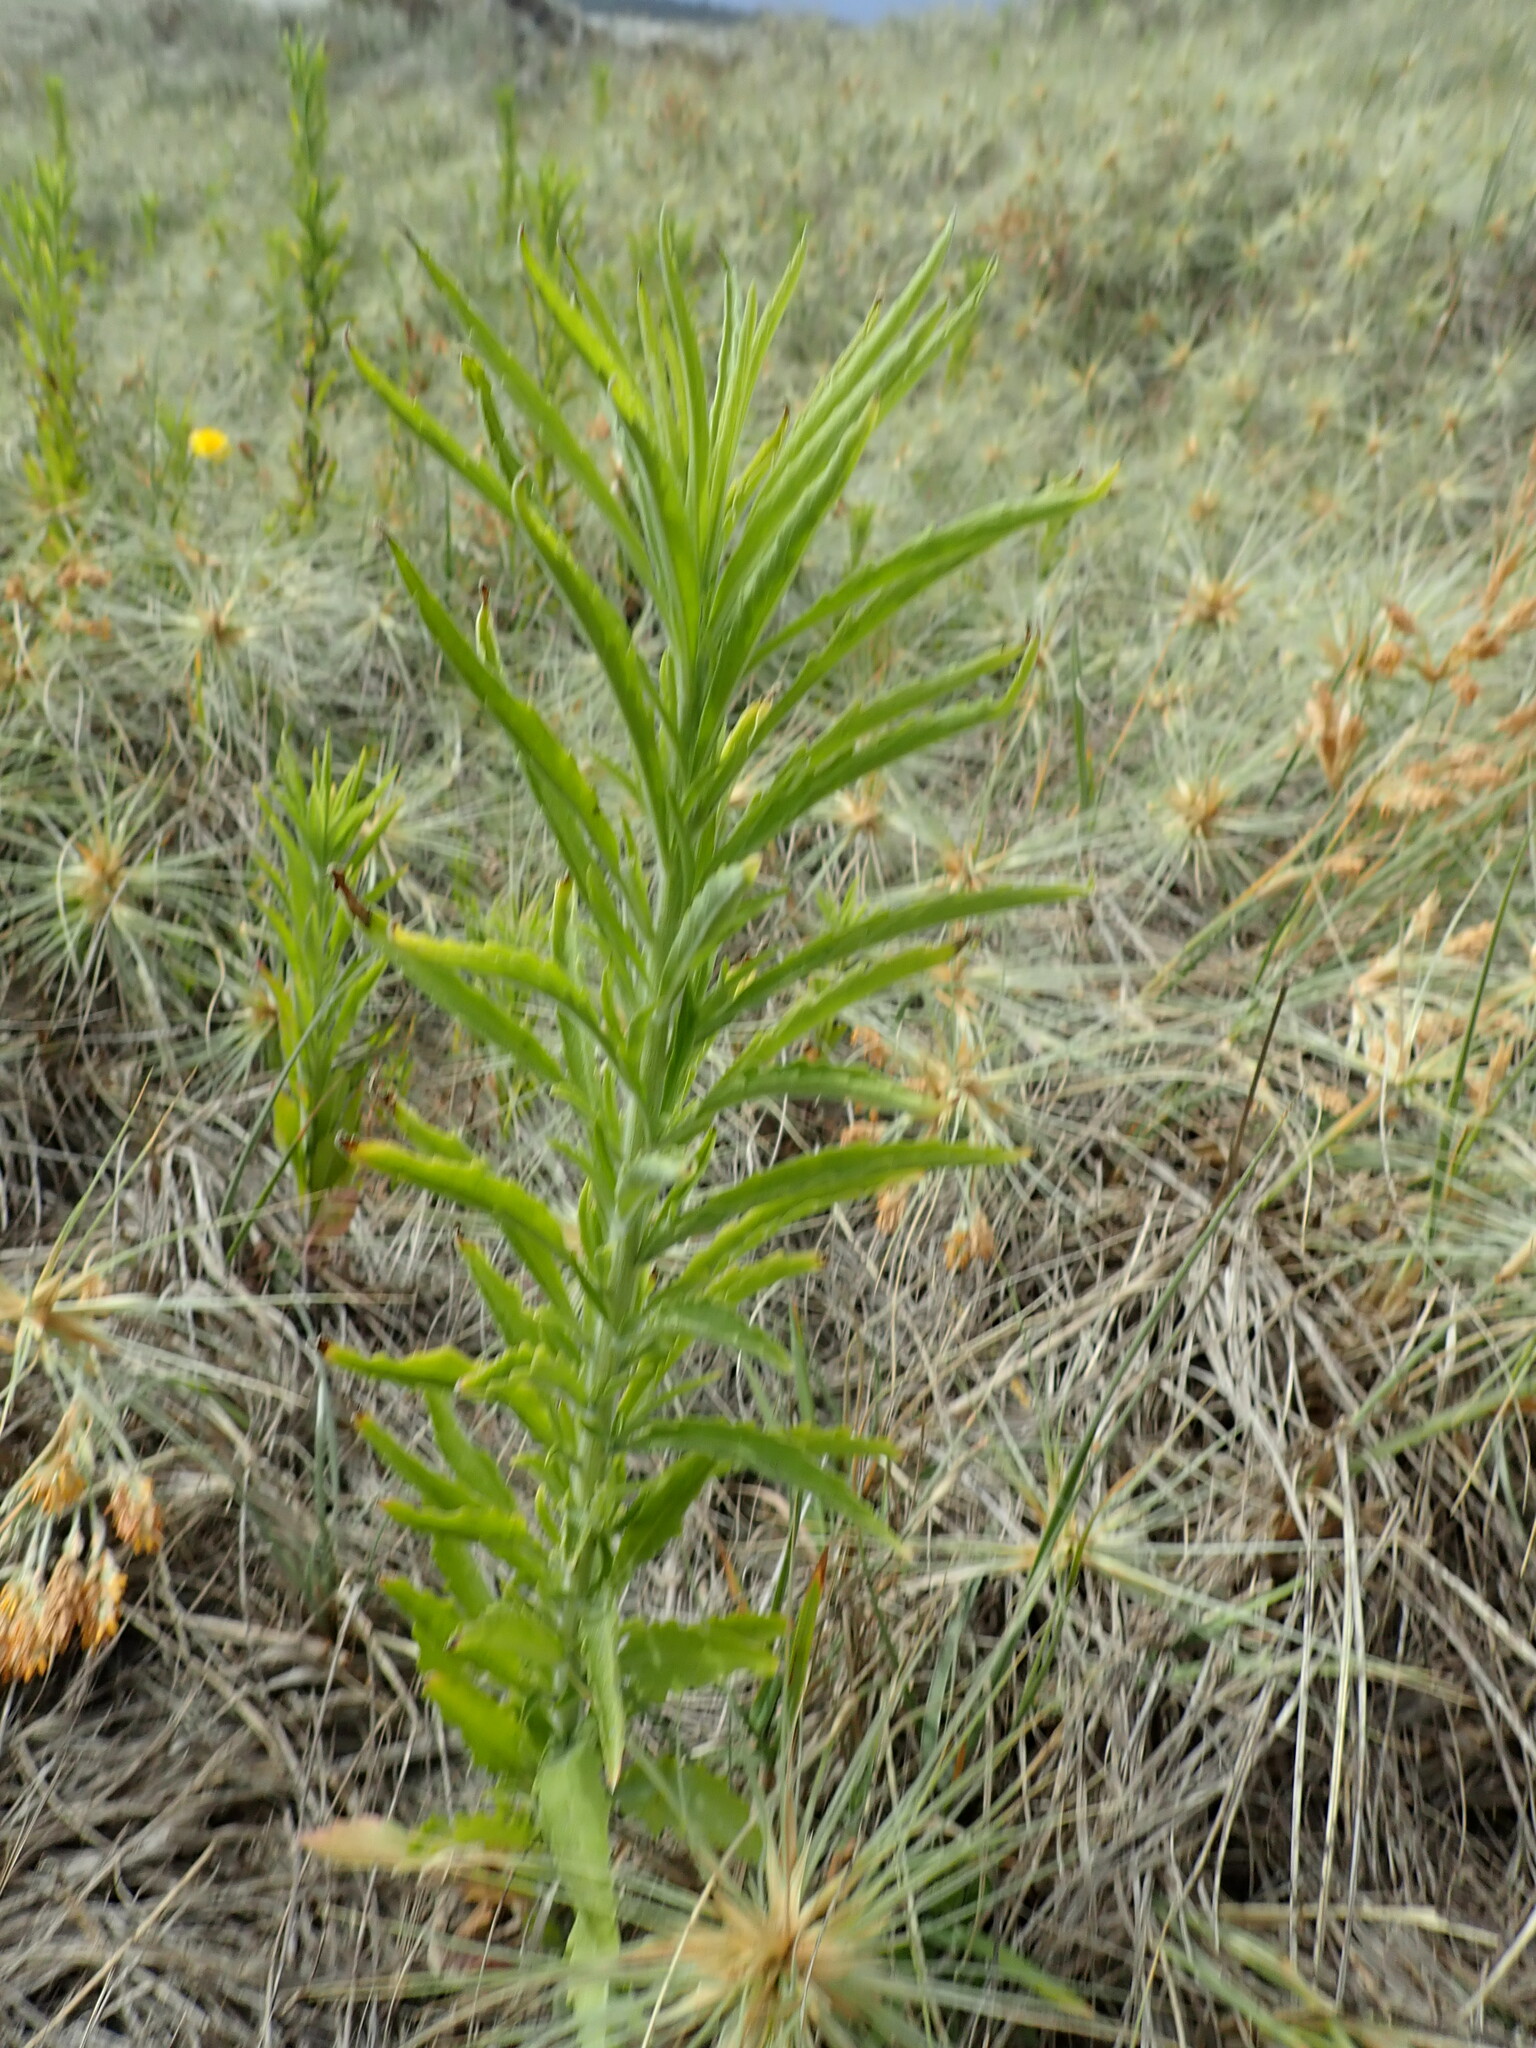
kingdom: Plantae
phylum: Tracheophyta
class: Magnoliopsida
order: Asterales
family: Asteraceae
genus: Erigeron
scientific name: Erigeron sumatrensis
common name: Daisy
